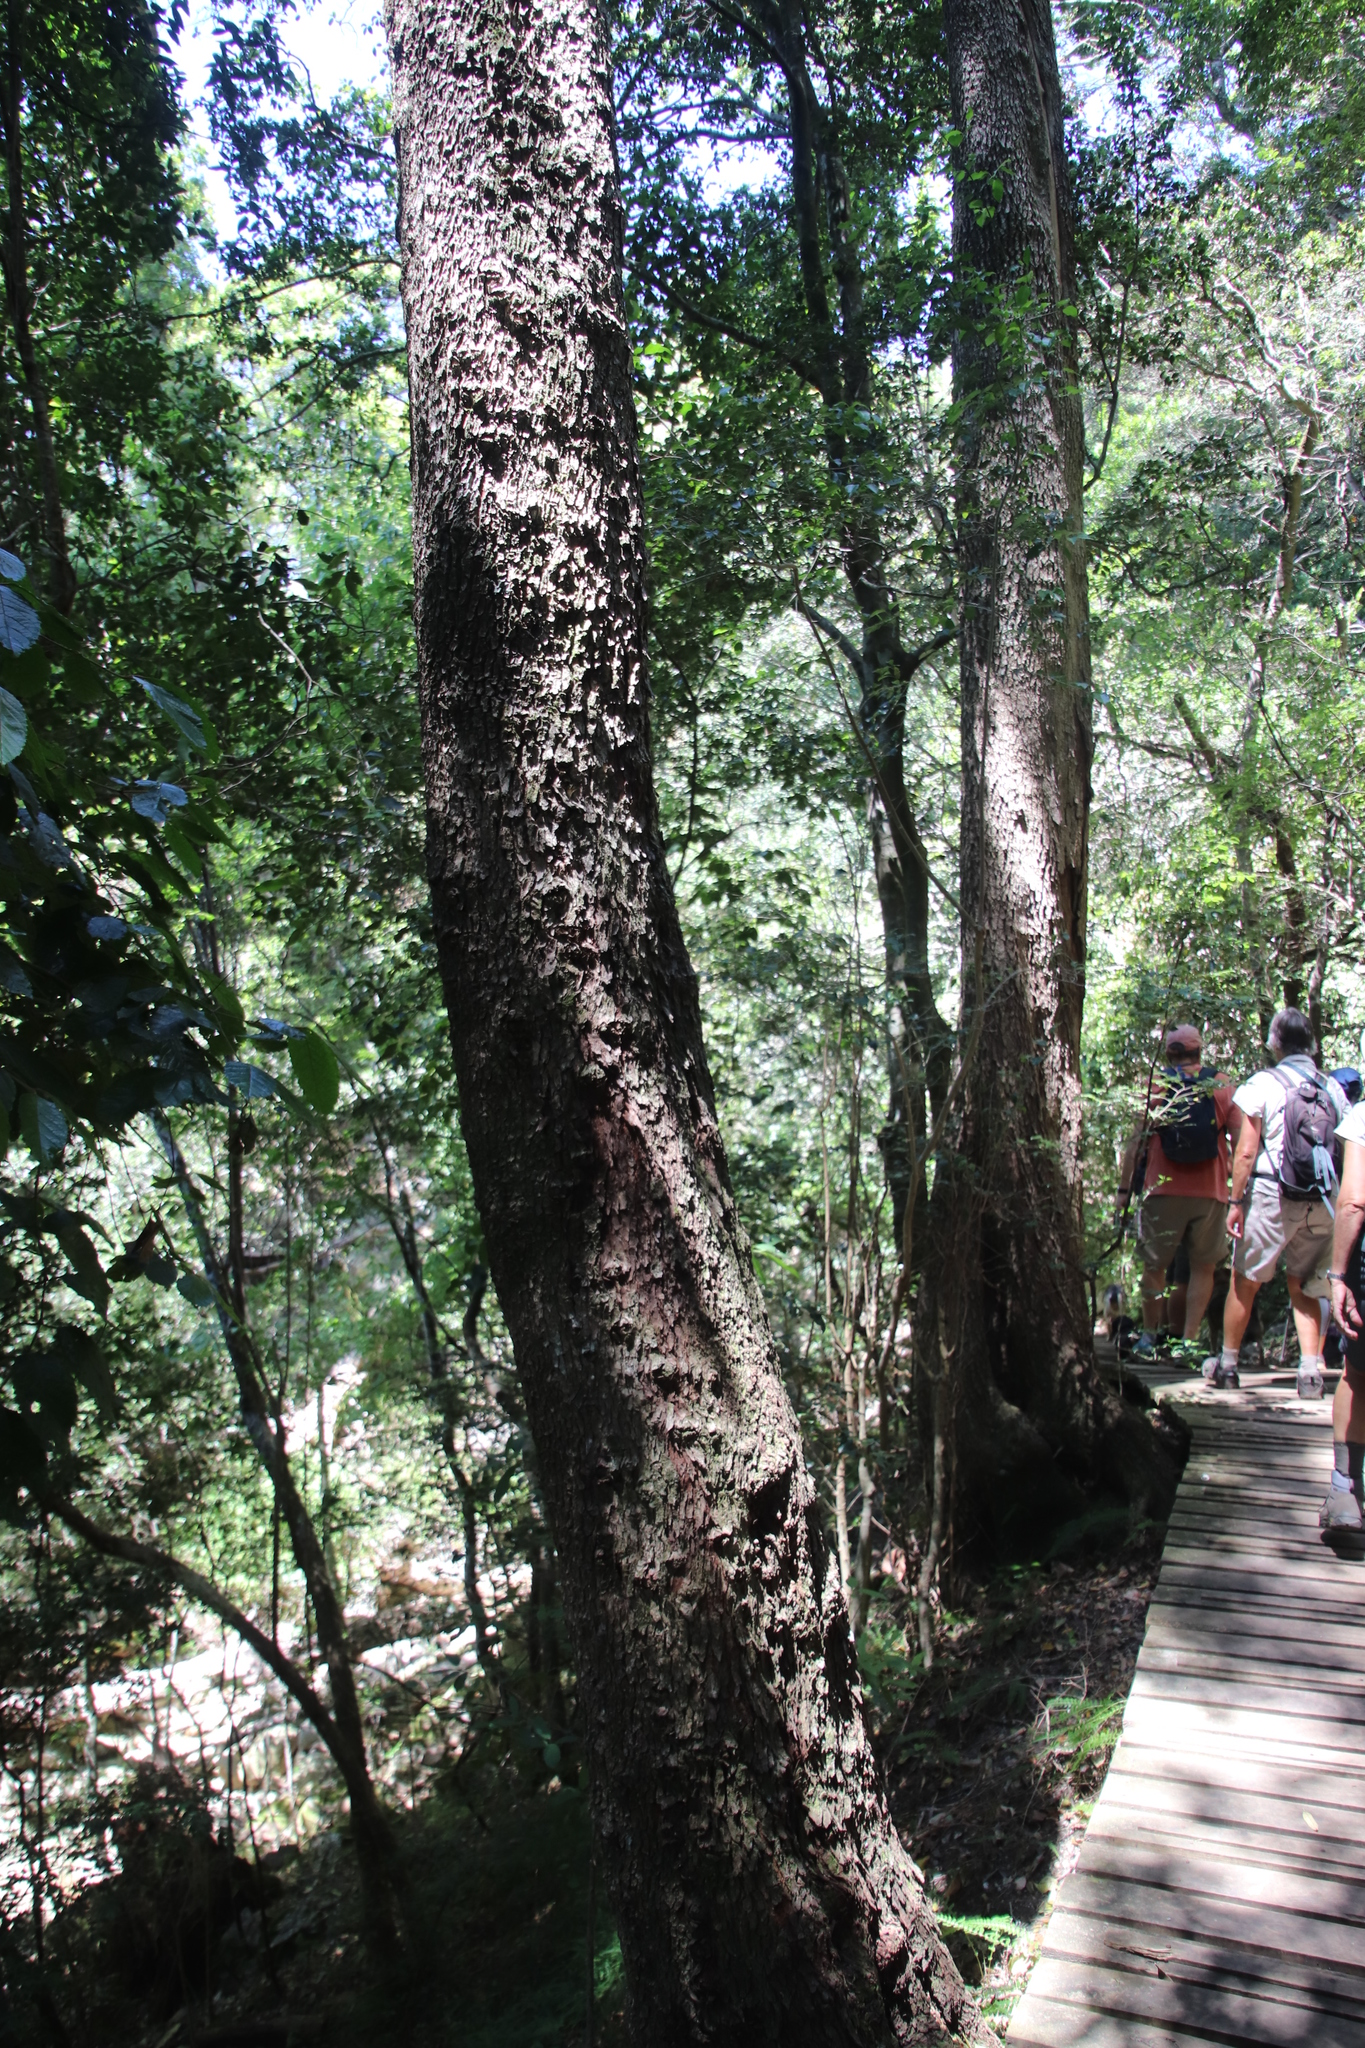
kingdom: Plantae
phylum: Tracheophyta
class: Magnoliopsida
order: Myrtales
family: Penaeaceae
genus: Olinia
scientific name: Olinia ventosa
